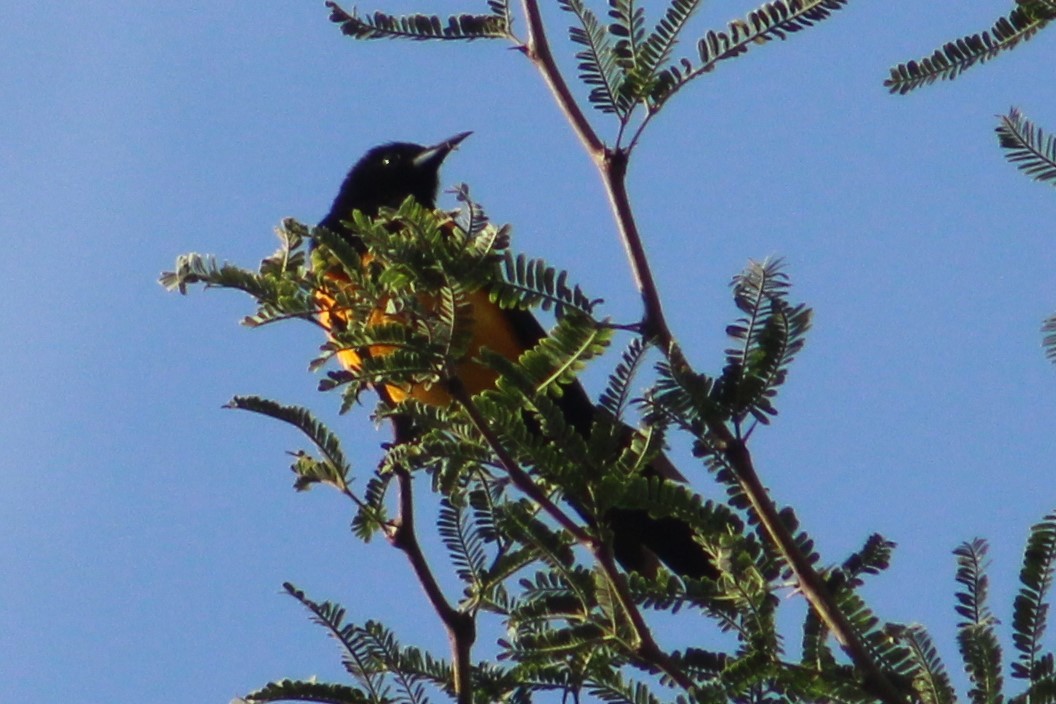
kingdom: Animalia
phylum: Chordata
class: Aves
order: Passeriformes
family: Icteridae
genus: Icterus
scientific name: Icterus wagleri
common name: Black-vented oriole
